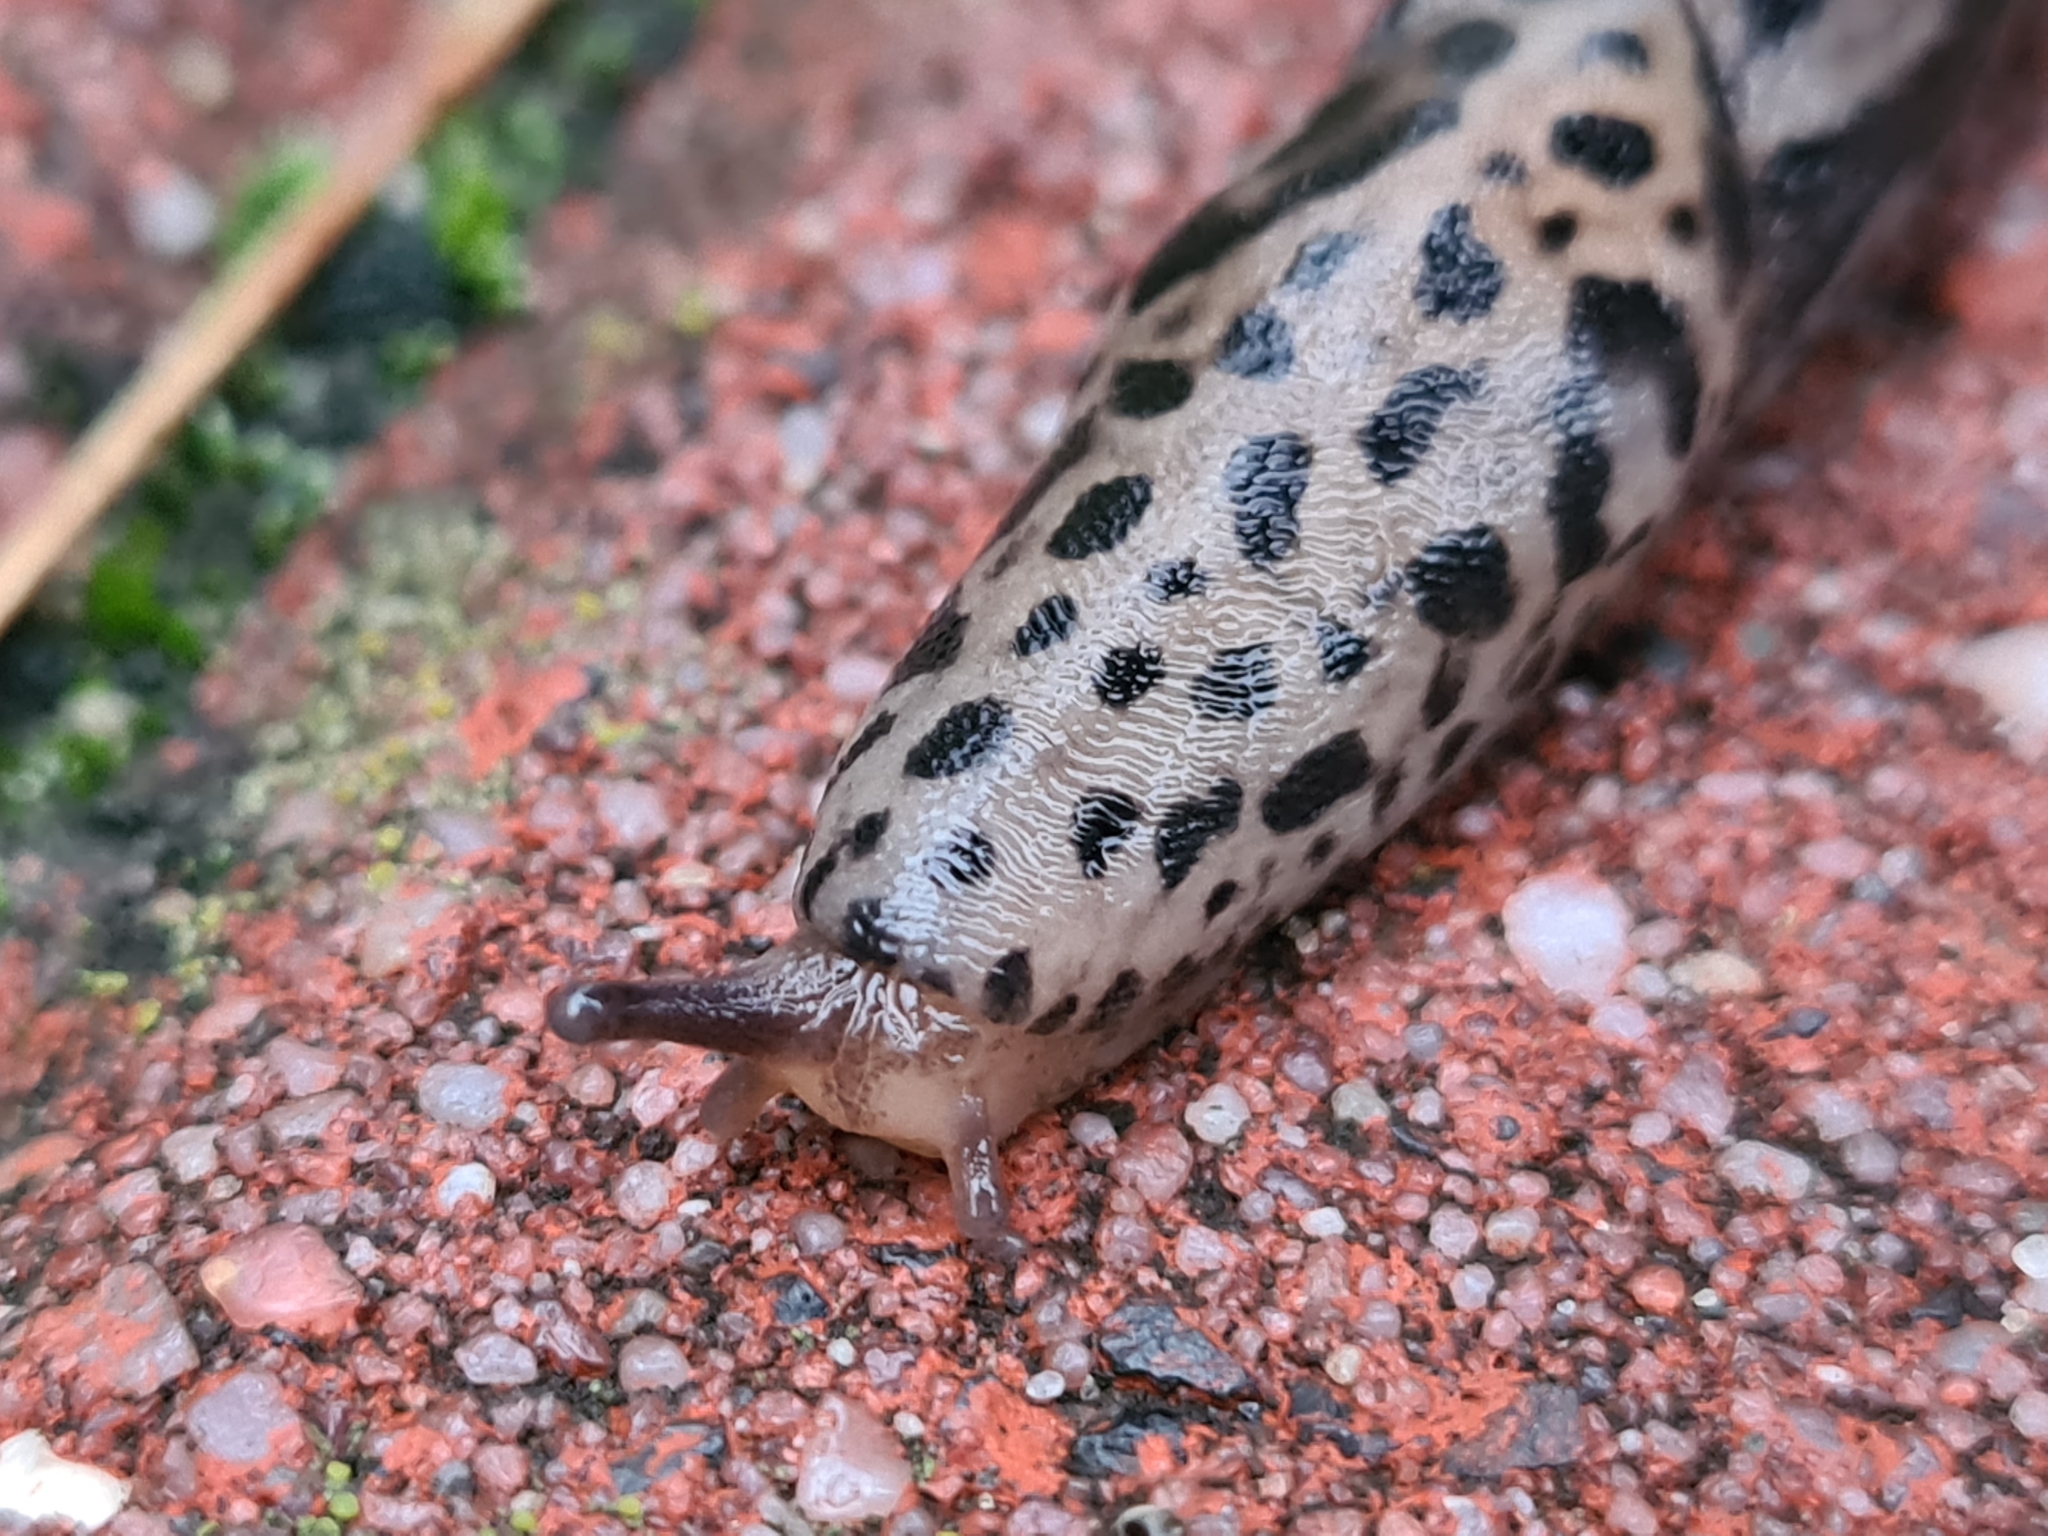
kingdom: Animalia
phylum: Mollusca
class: Gastropoda
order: Stylommatophora
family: Limacidae
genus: Limax
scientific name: Limax maximus
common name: Great grey slug
